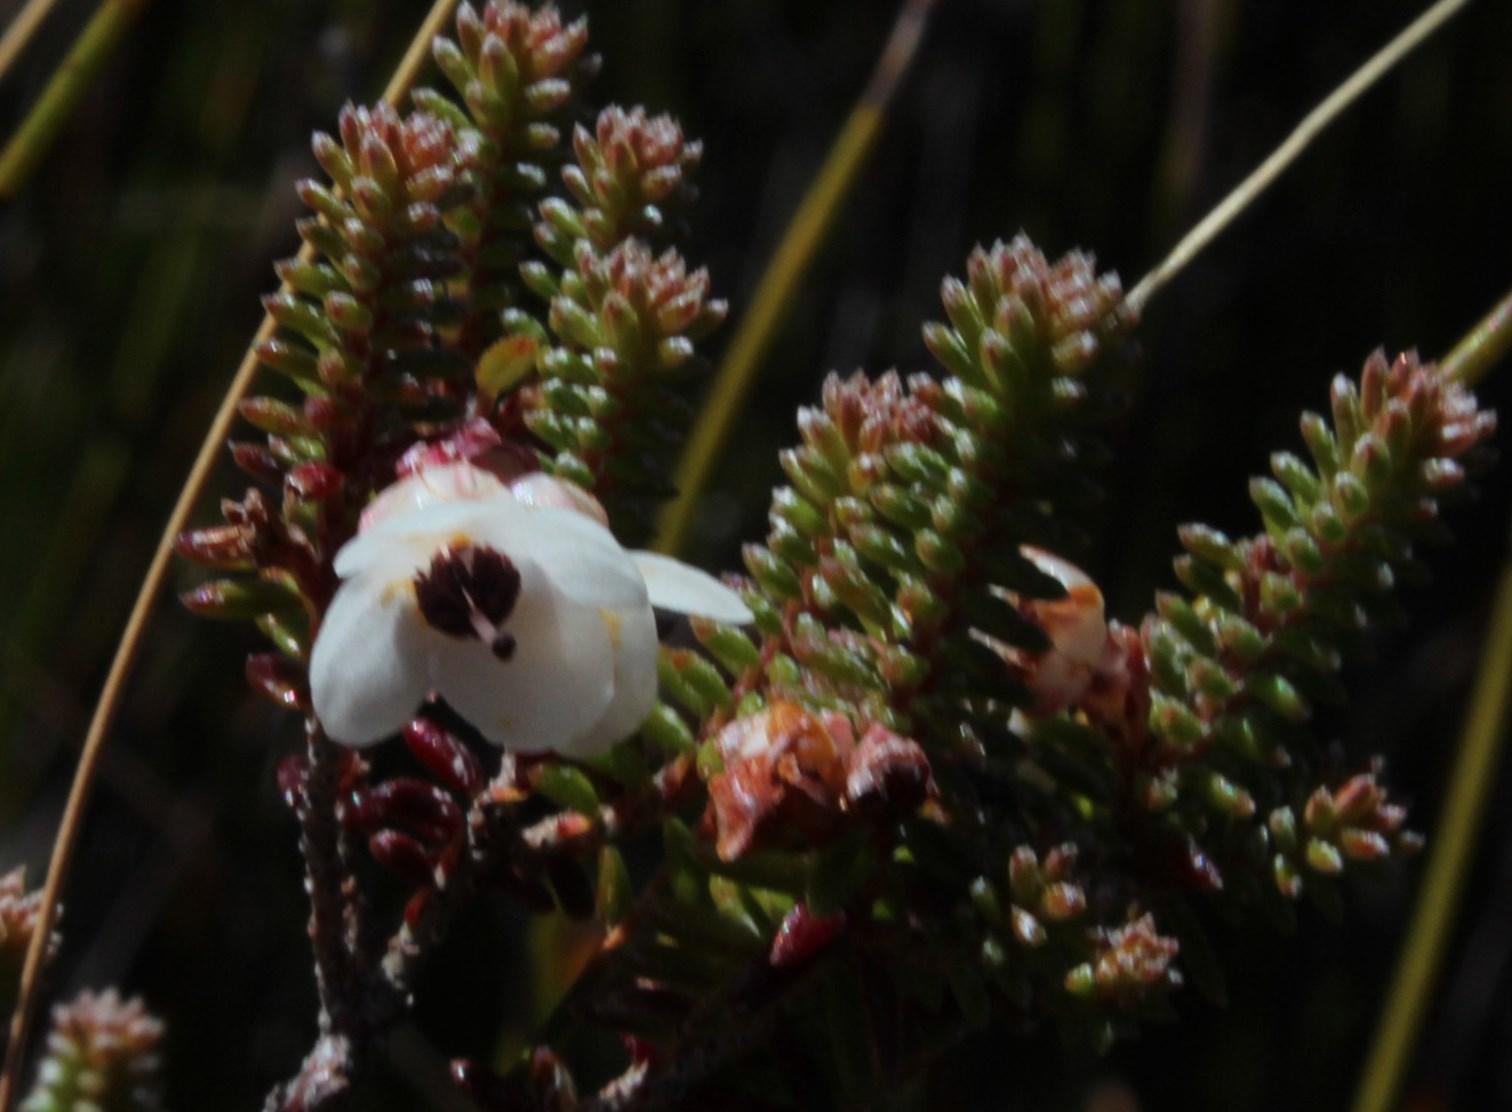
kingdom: Plantae
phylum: Tracheophyta
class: Magnoliopsida
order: Ericales
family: Ericaceae
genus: Erica
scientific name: Erica corydalis
